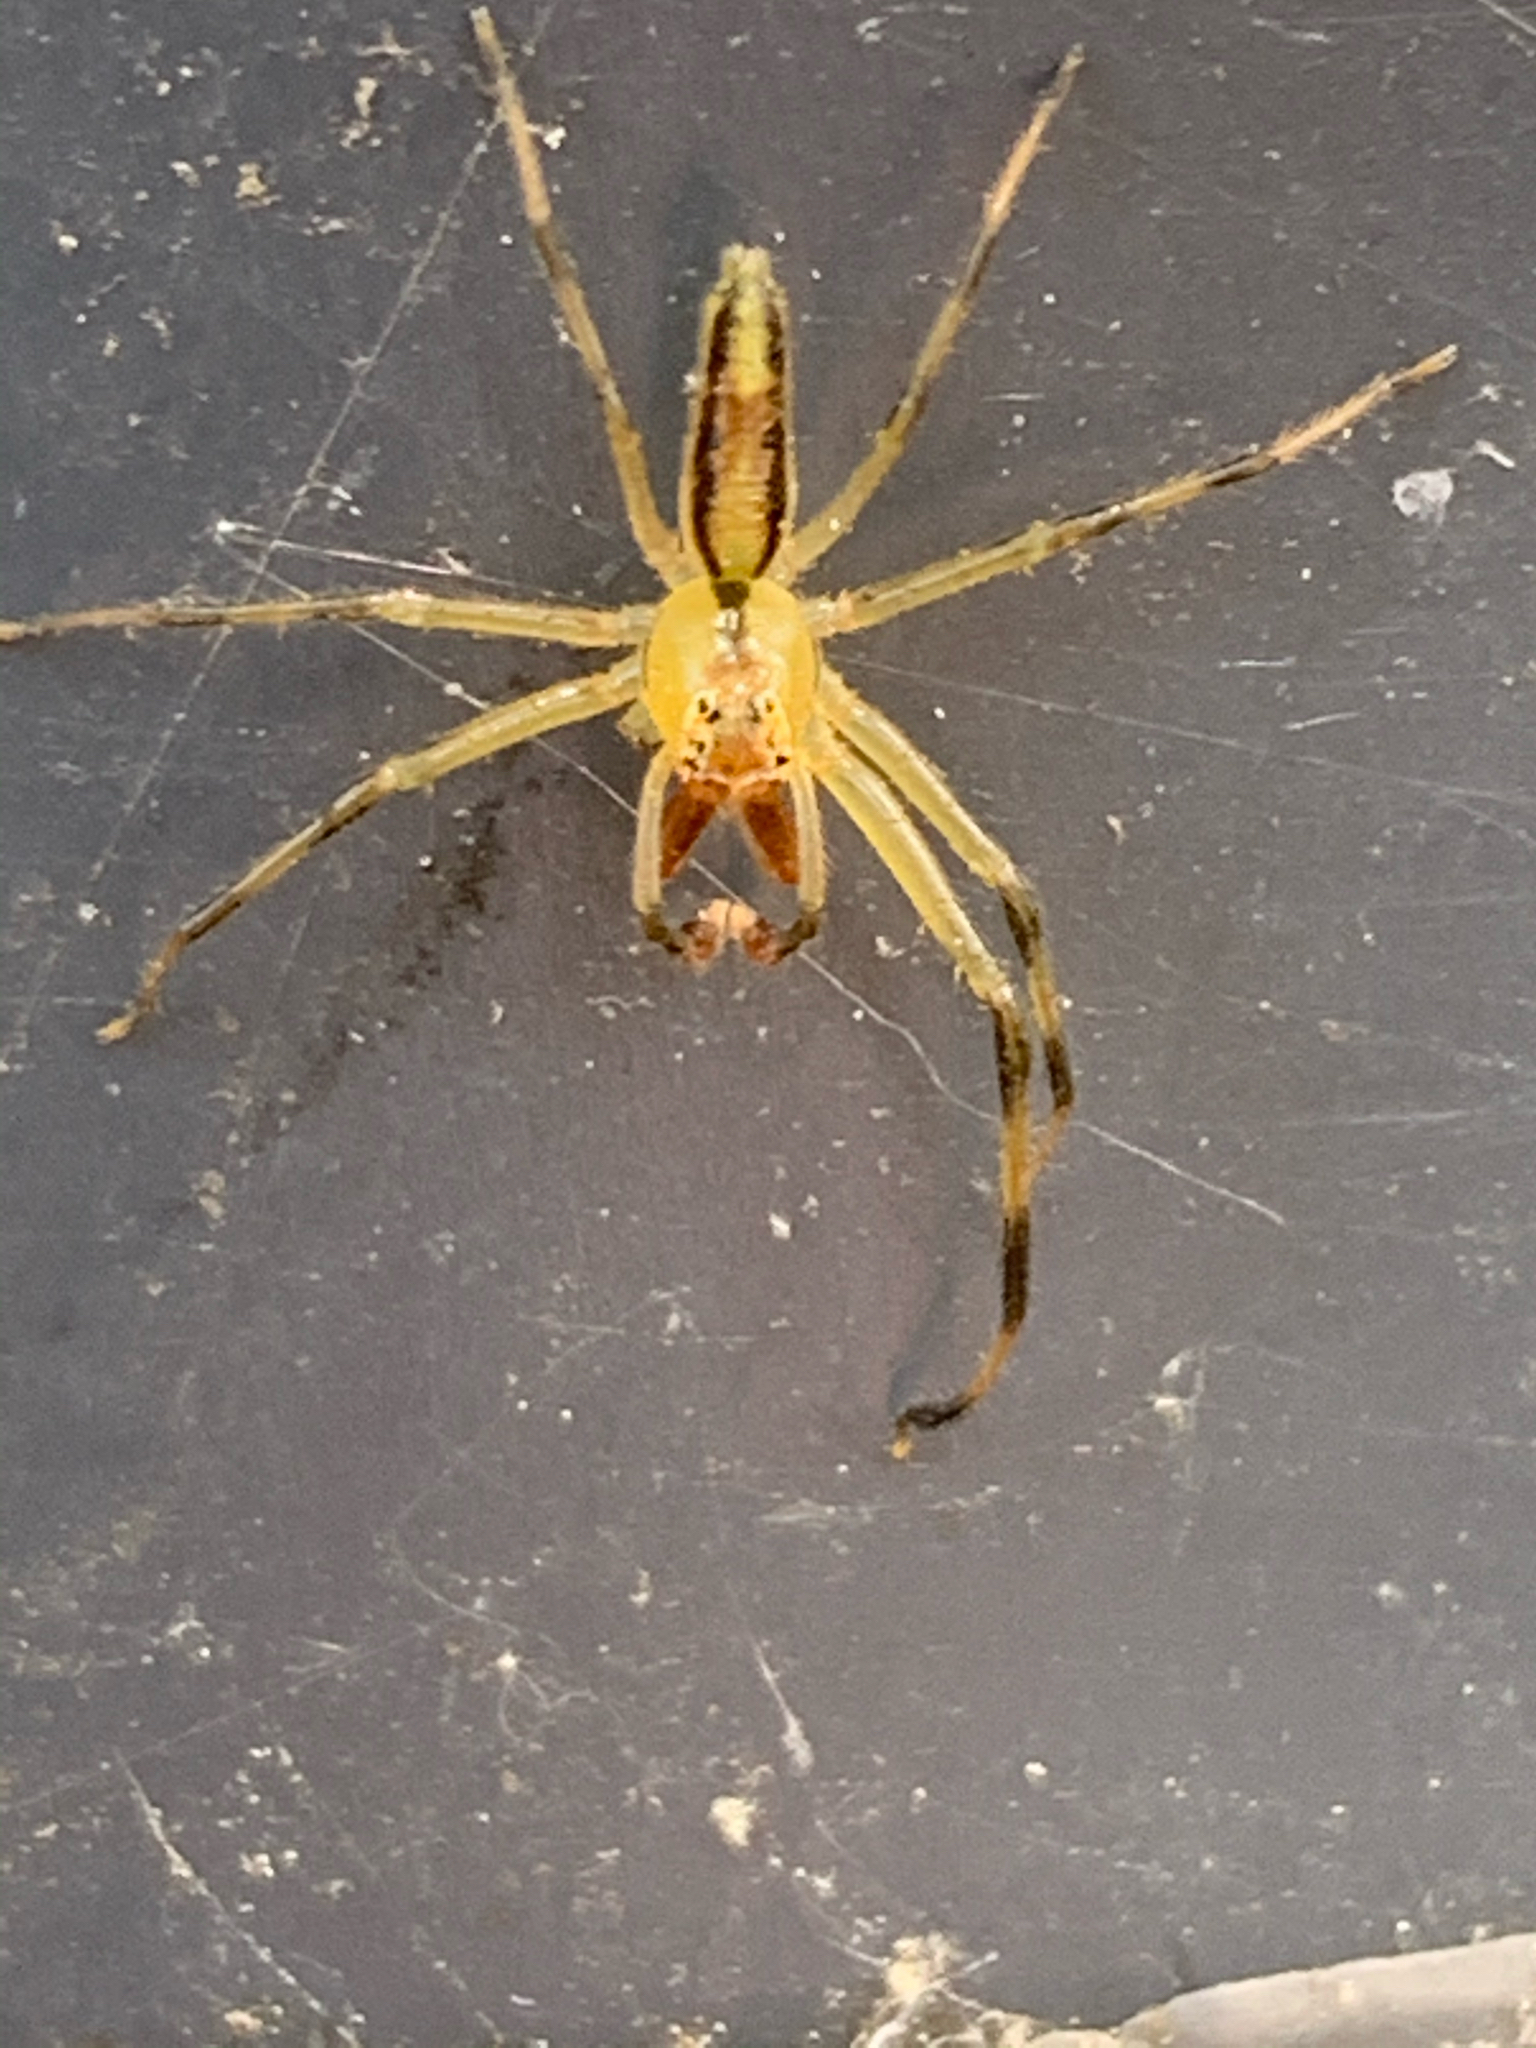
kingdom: Animalia
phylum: Arthropoda
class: Arachnida
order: Araneae
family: Salticidae
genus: Lyssomanes
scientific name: Lyssomanes viridis
